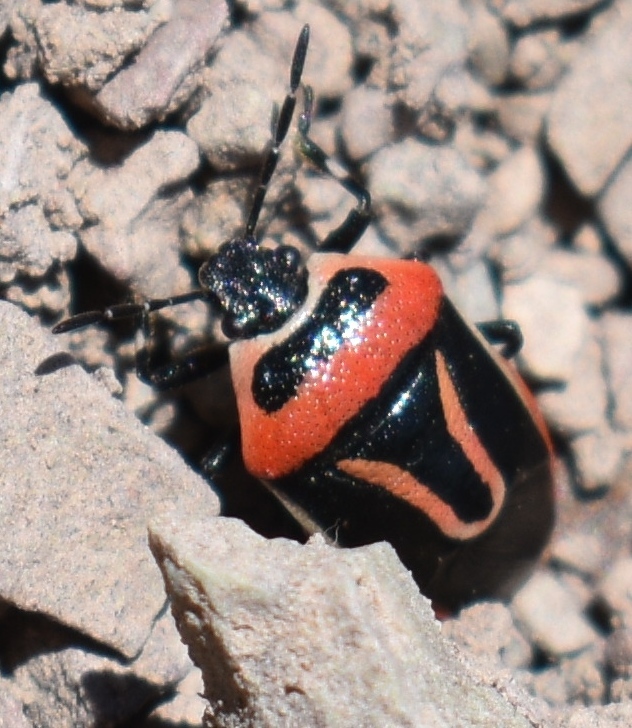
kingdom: Animalia
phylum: Arthropoda
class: Insecta
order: Hemiptera
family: Pentatomidae
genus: Perillus
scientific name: Perillus exaptus
